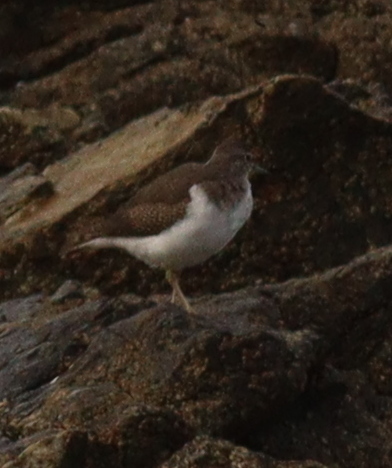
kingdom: Animalia
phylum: Chordata
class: Aves
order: Charadriiformes
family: Scolopacidae
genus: Actitis
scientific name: Actitis hypoleucos
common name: Common sandpiper
